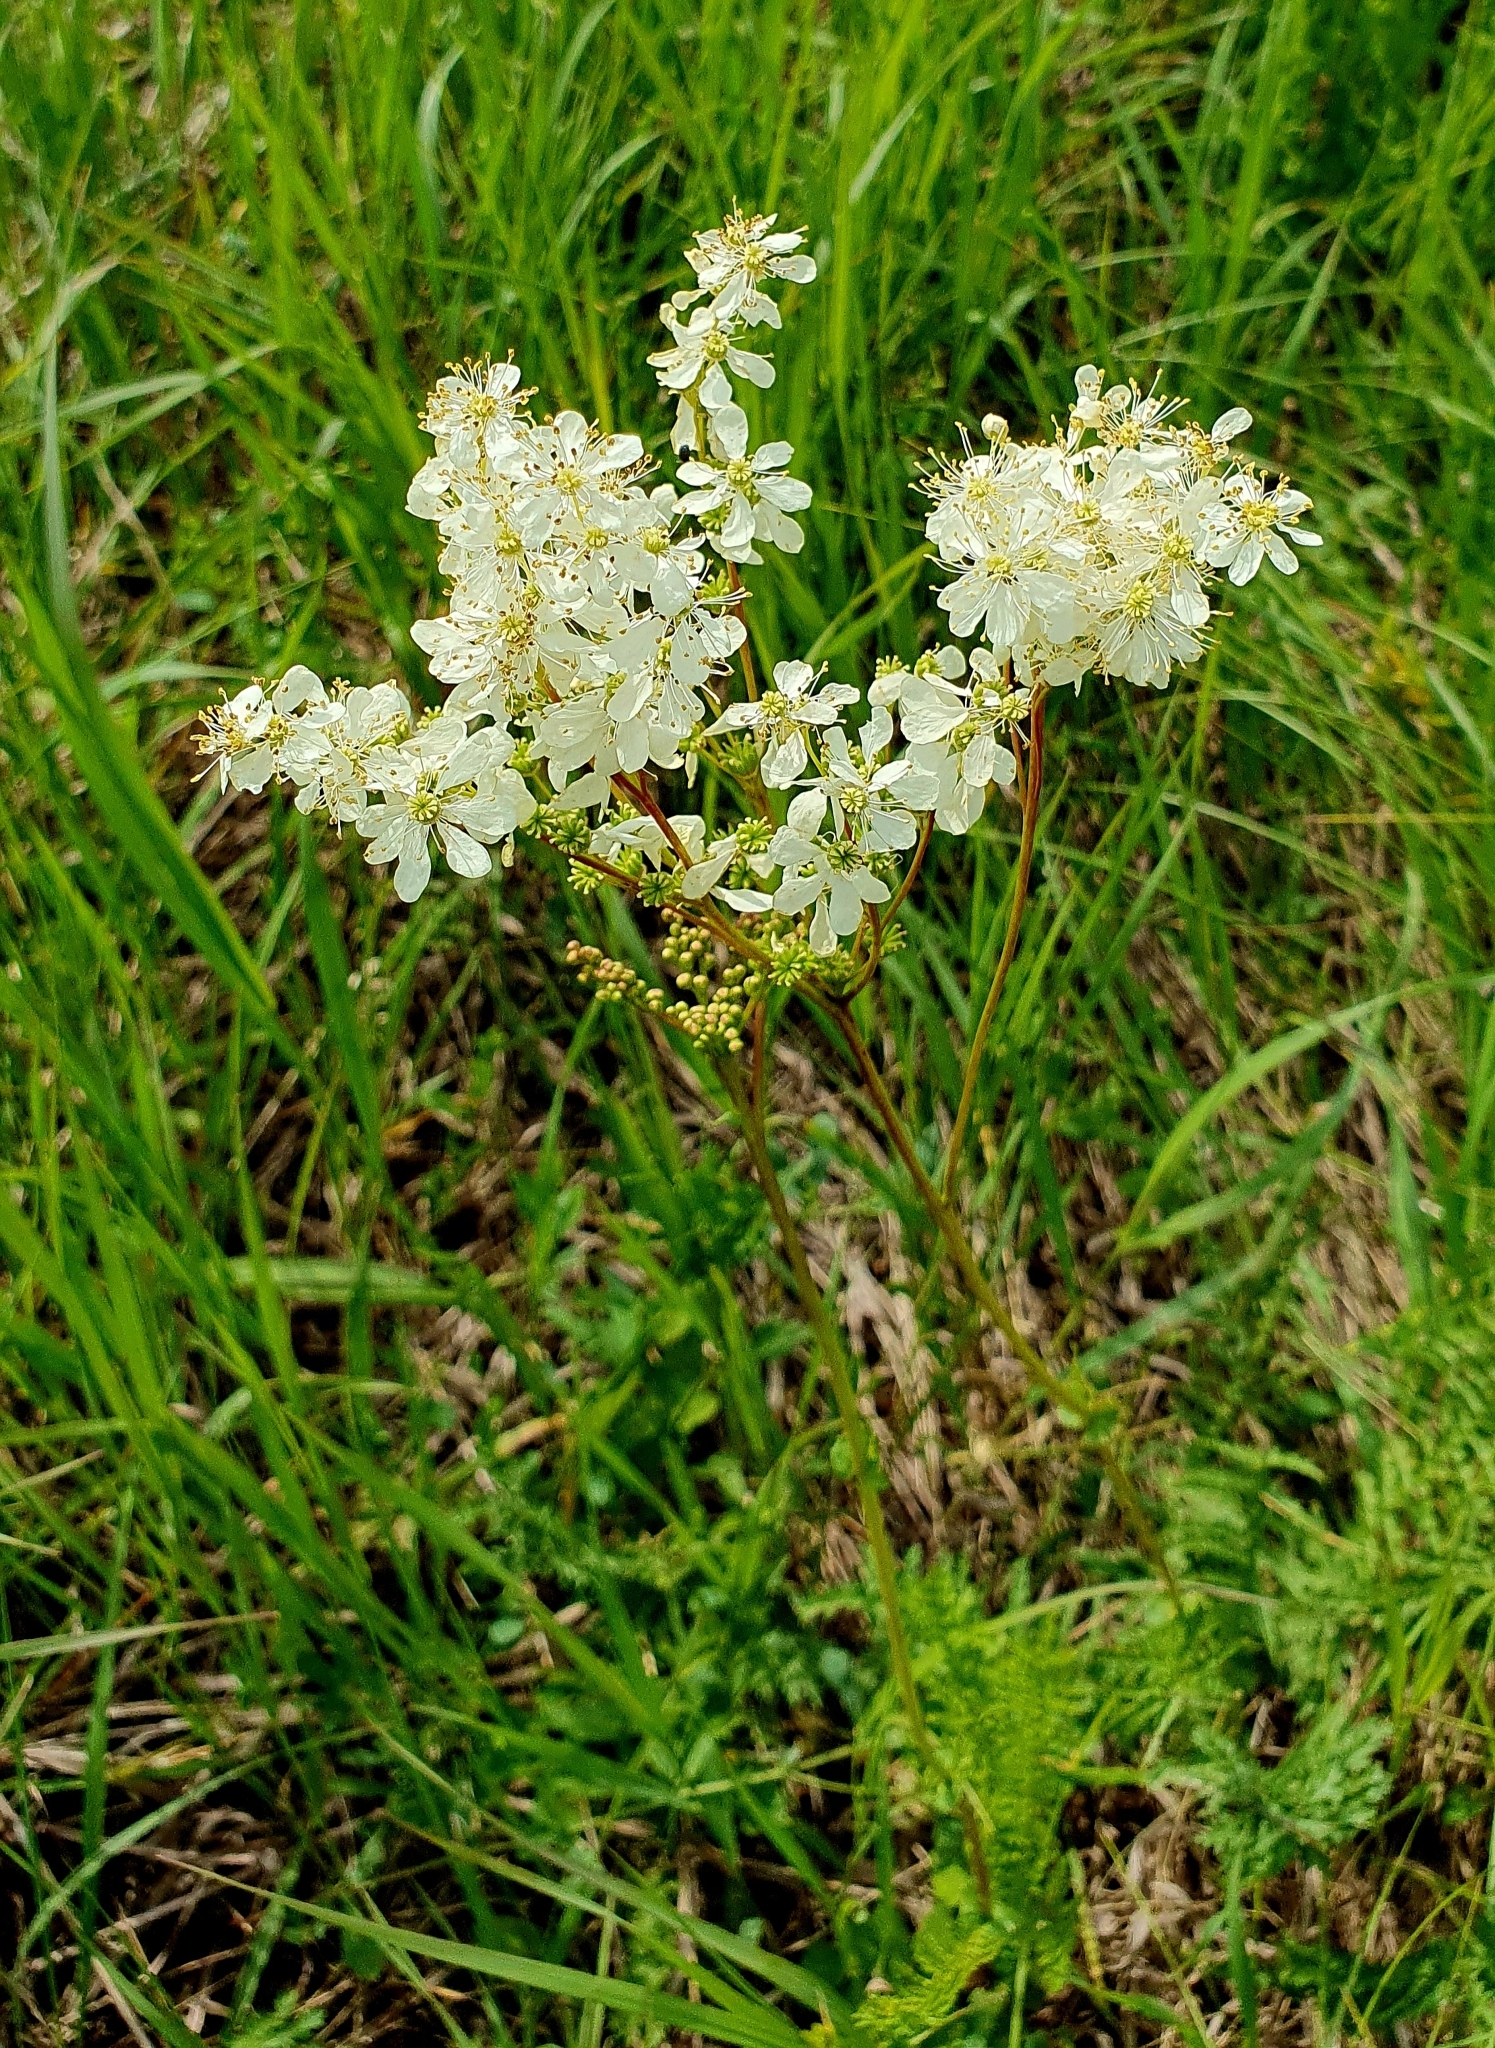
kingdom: Plantae
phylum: Tracheophyta
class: Magnoliopsida
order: Rosales
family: Rosaceae
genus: Filipendula
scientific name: Filipendula vulgaris
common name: Dropwort
